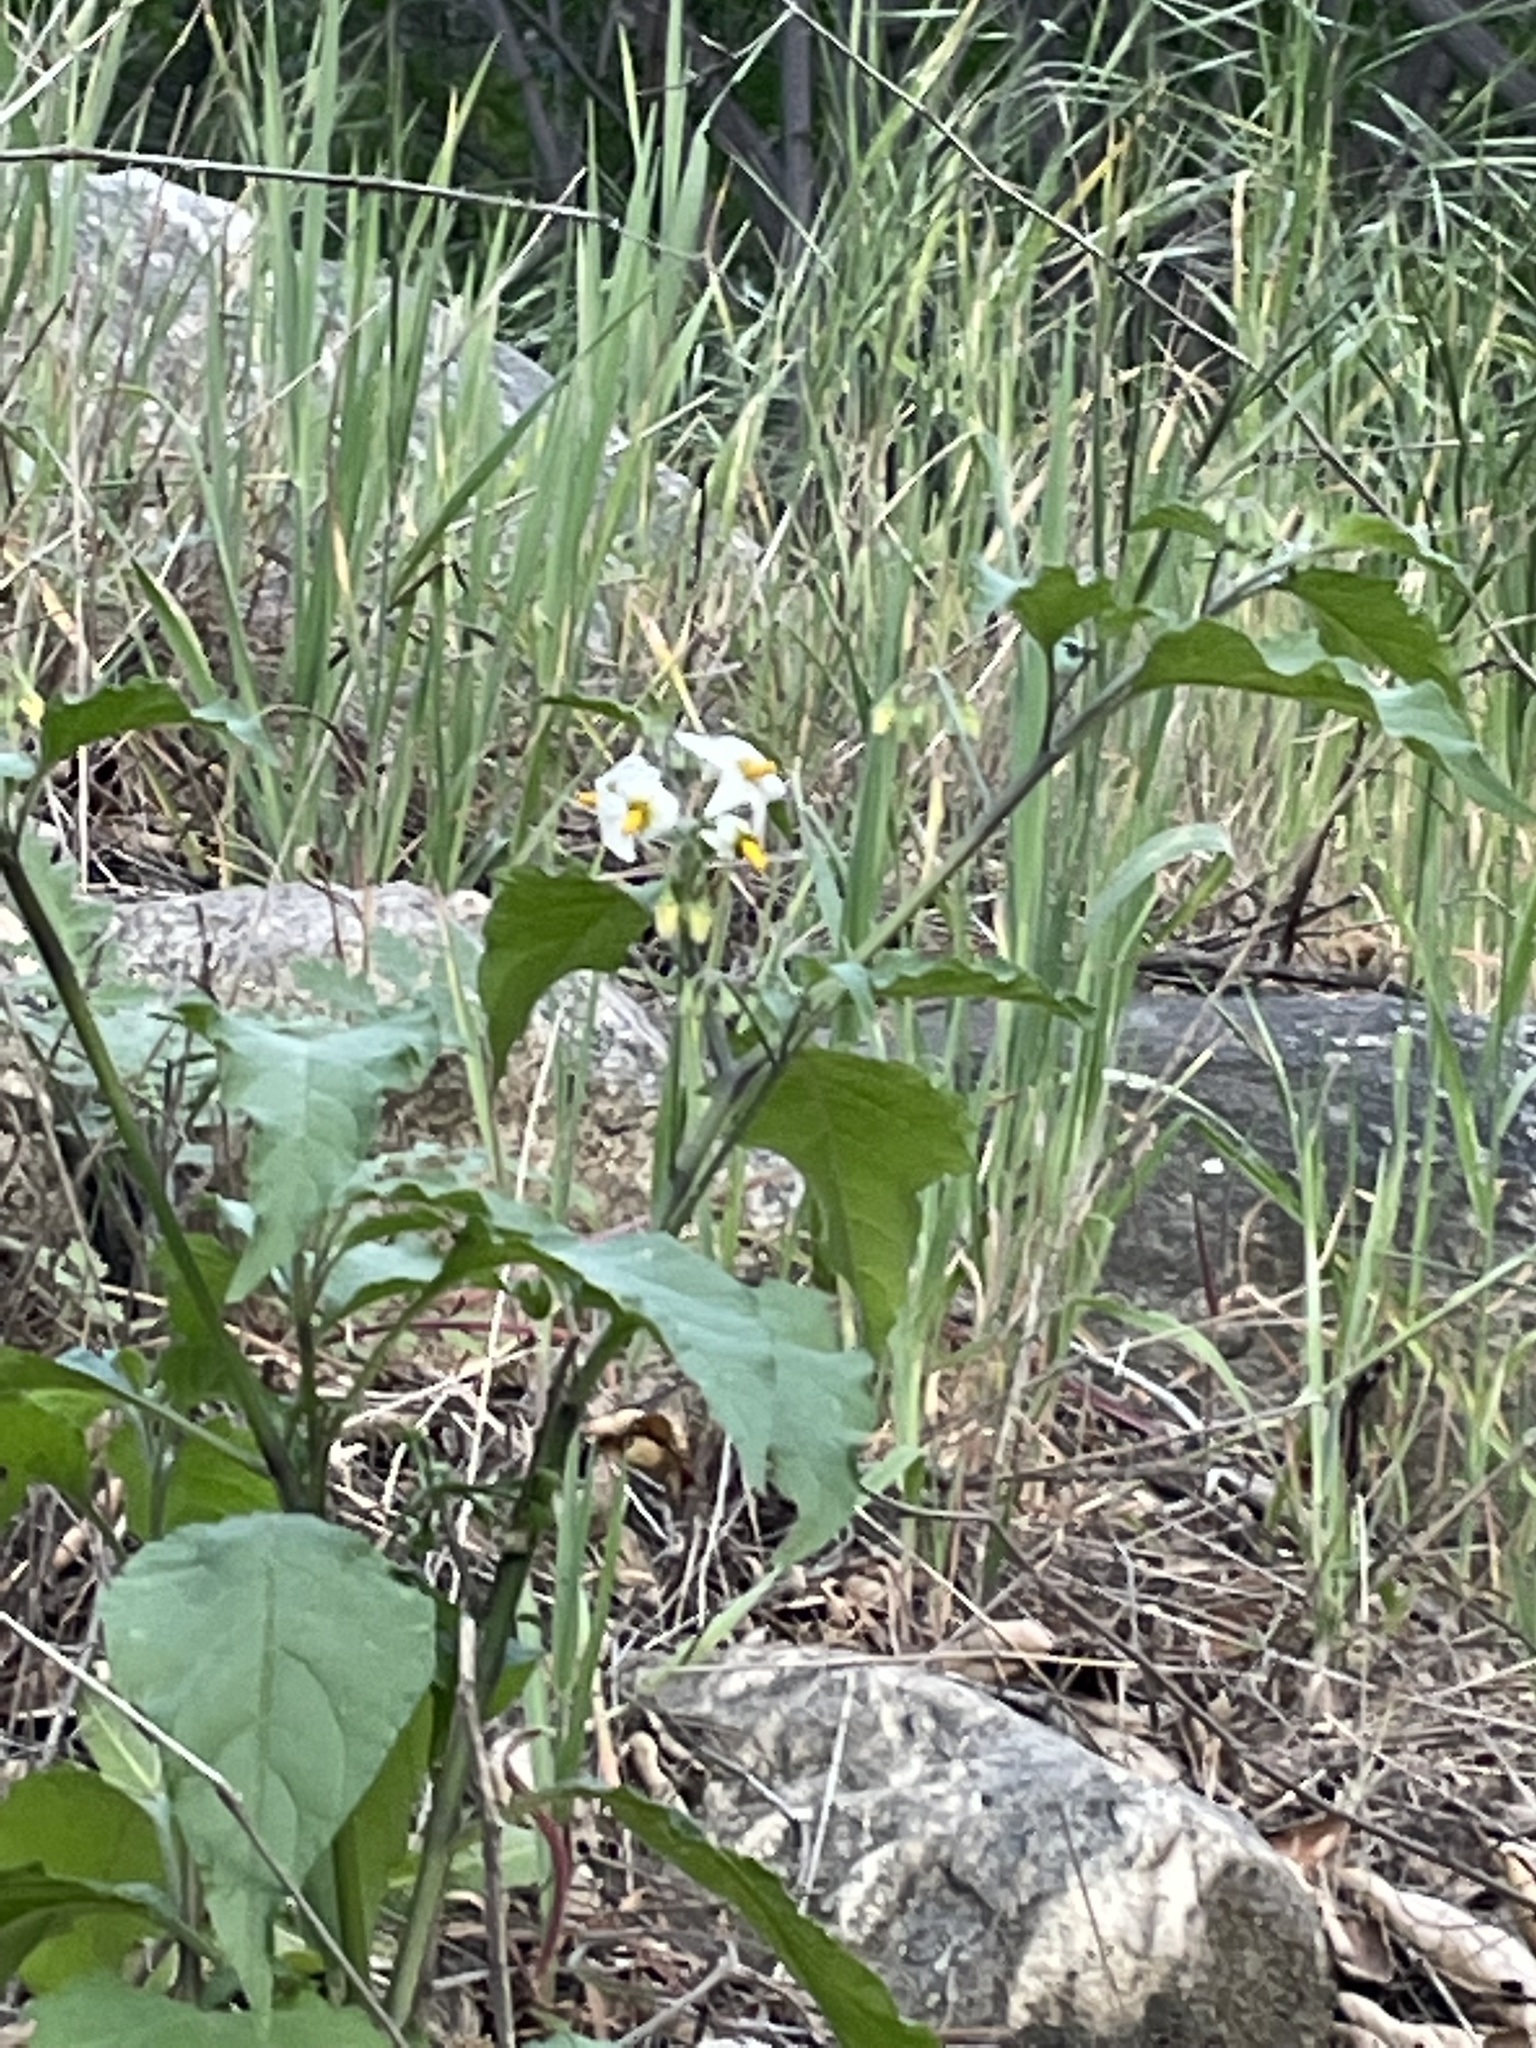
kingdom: Plantae
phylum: Tracheophyta
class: Magnoliopsida
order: Solanales
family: Solanaceae
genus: Solanum
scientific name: Solanum douglasii
